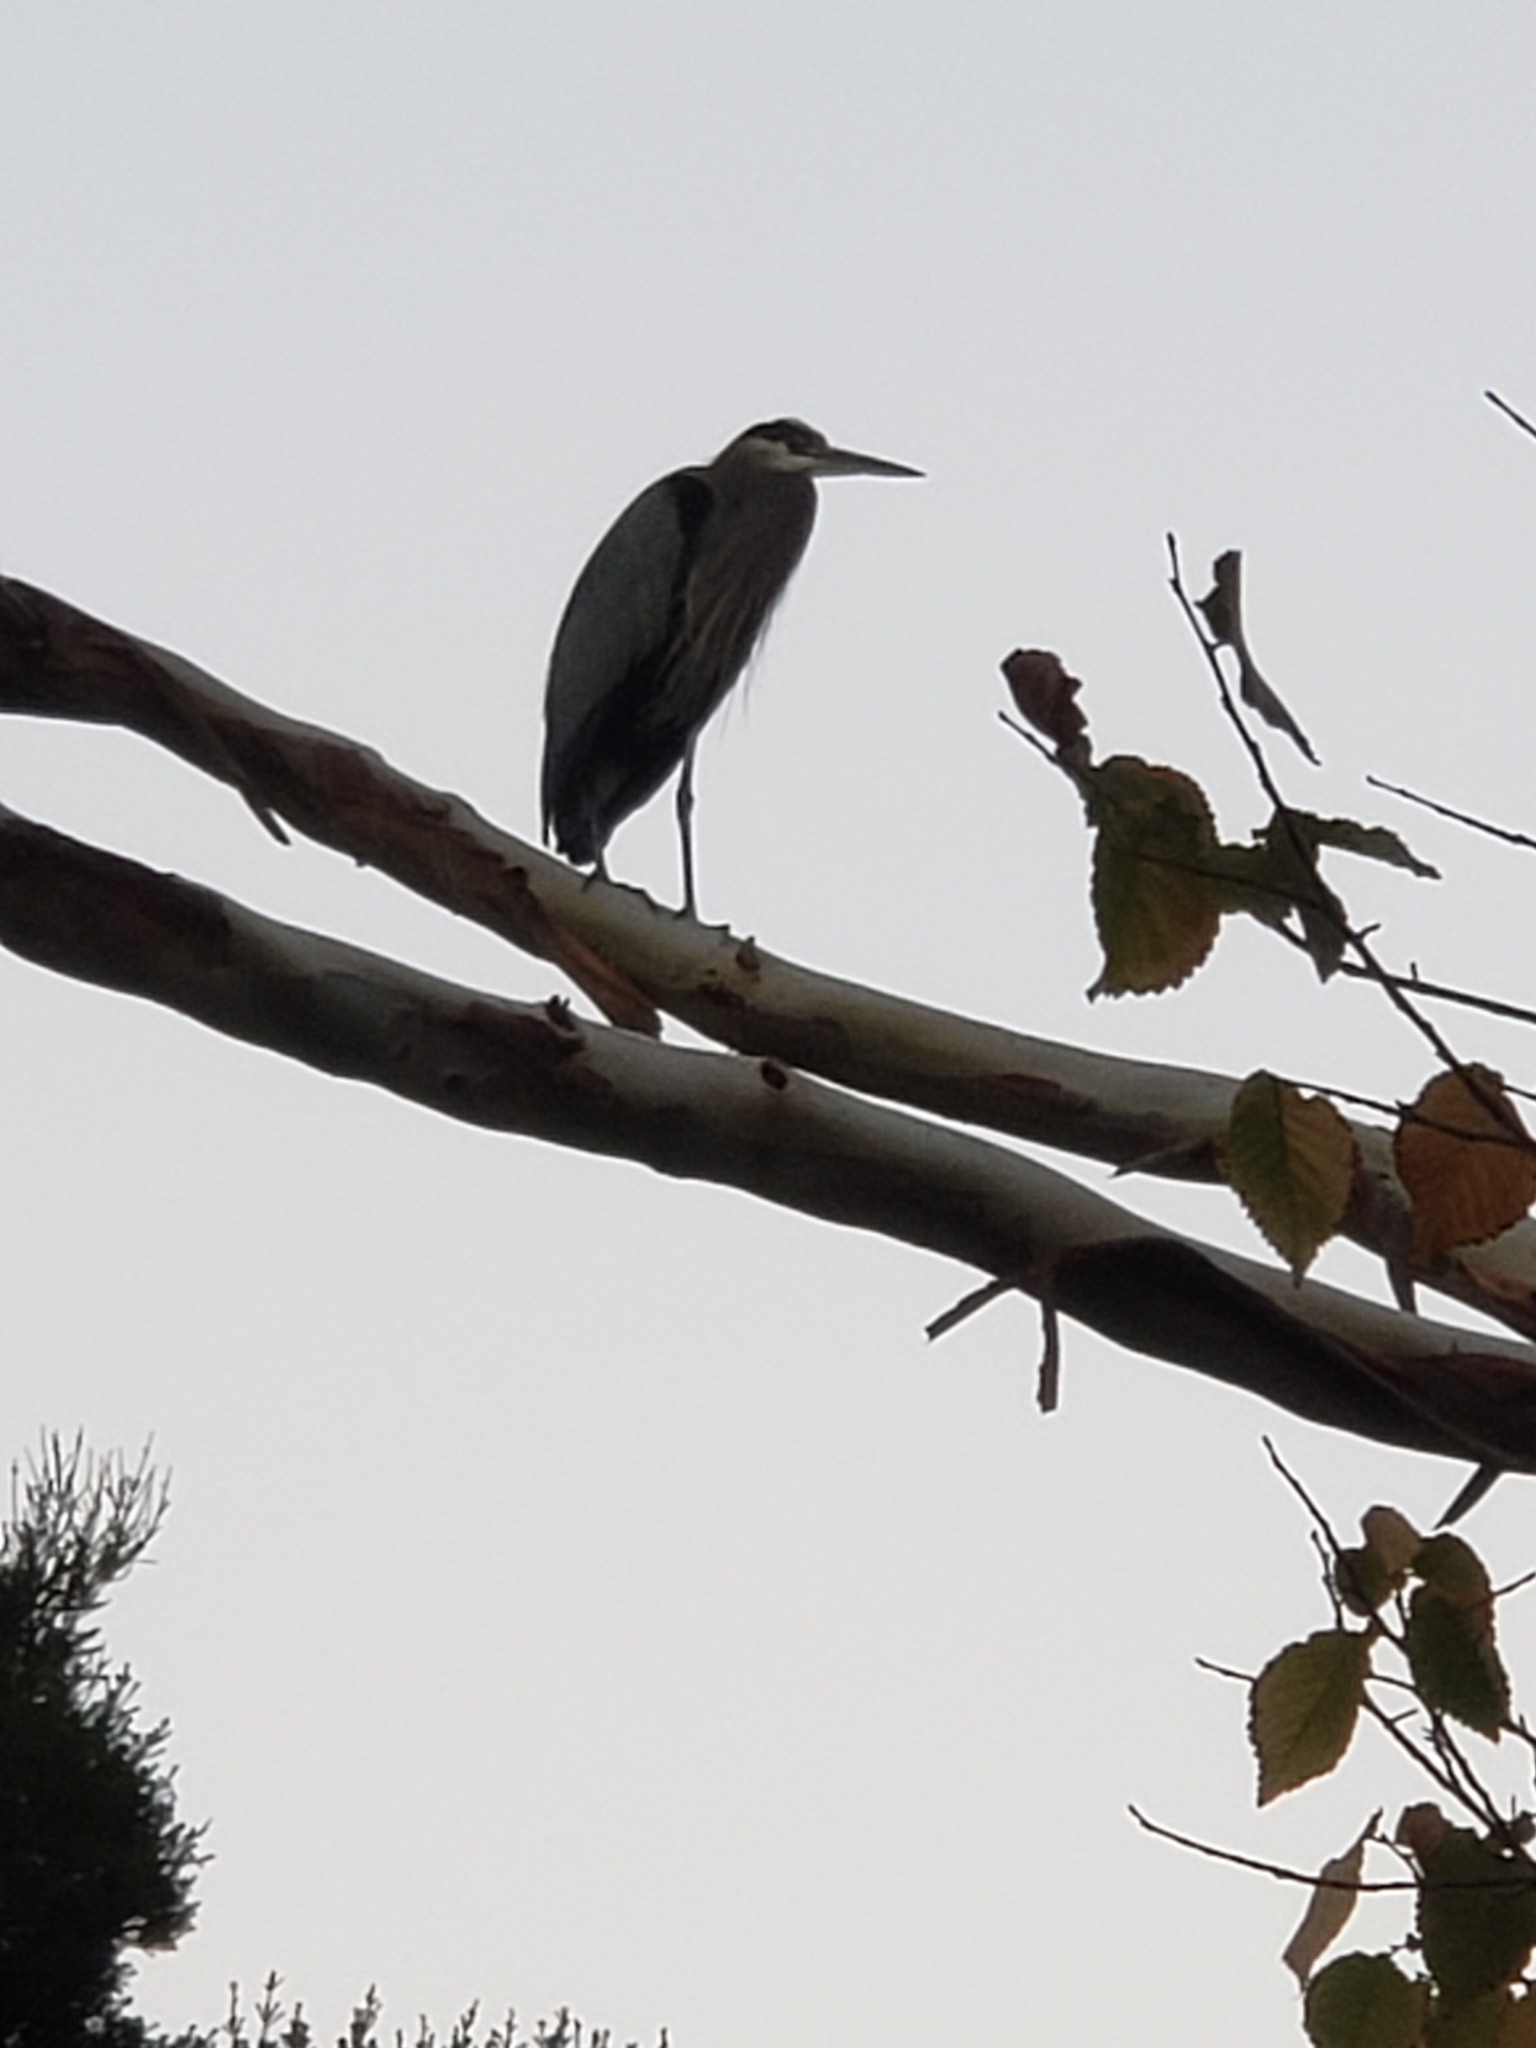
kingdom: Animalia
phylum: Chordata
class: Aves
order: Pelecaniformes
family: Ardeidae
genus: Ardea
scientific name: Ardea herodias
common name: Great blue heron
